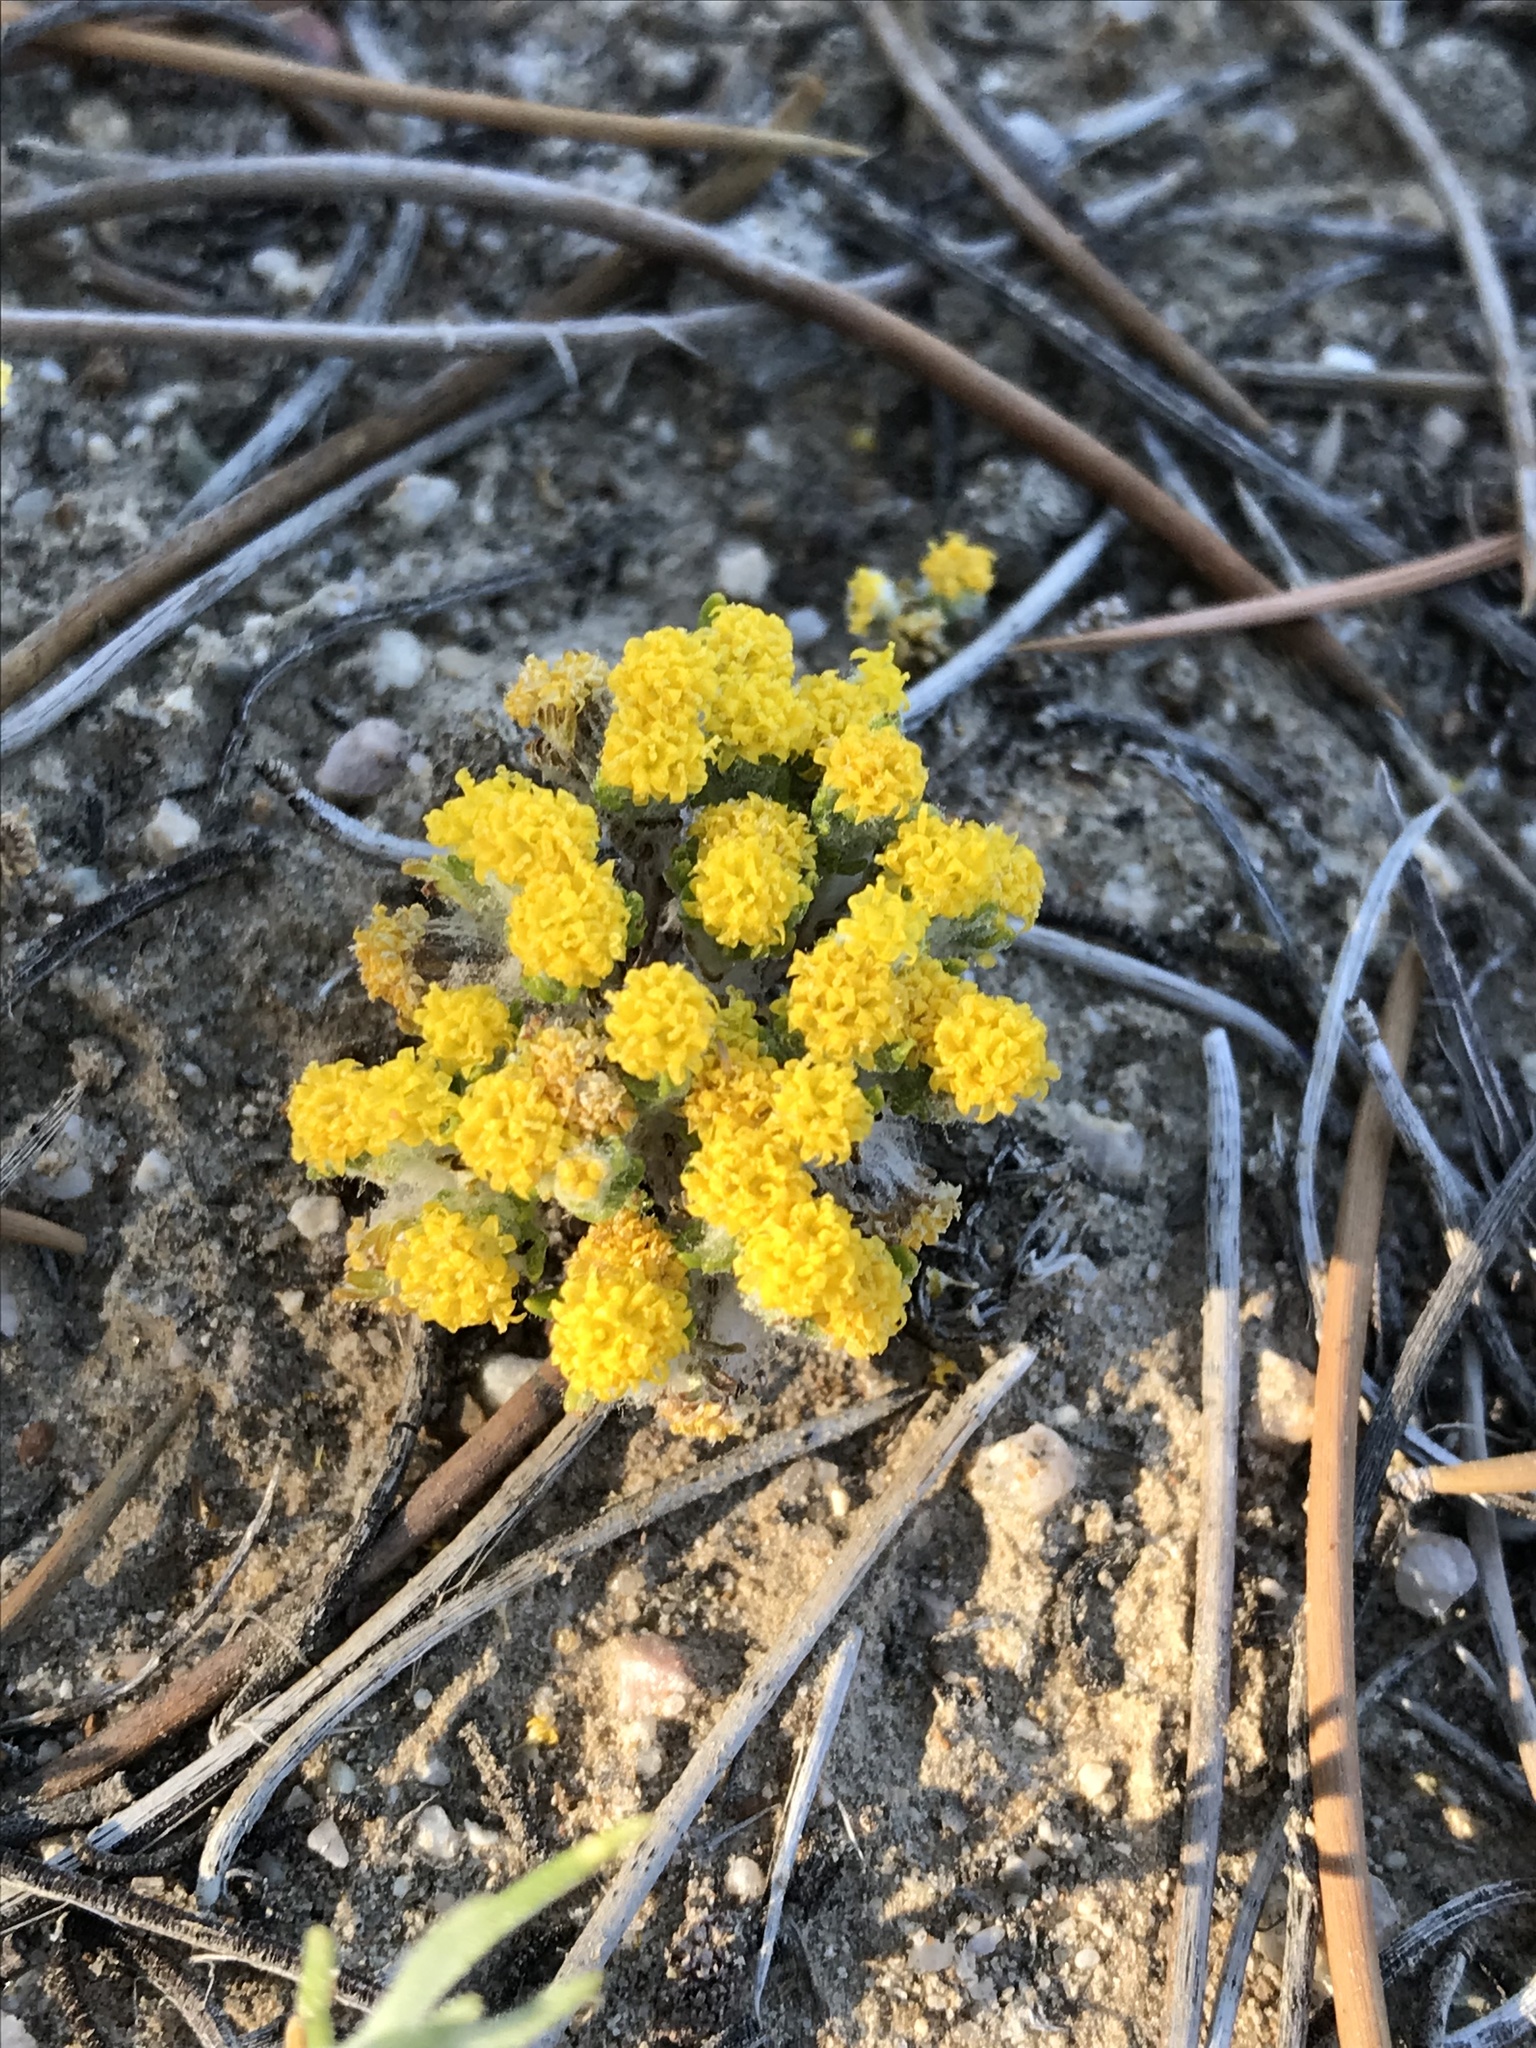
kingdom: Plantae
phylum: Tracheophyta
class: Magnoliopsida
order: Asterales
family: Asteraceae
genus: Eriophyllum
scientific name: Eriophyllum pringlei
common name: Pringle's woolly-sunflower
